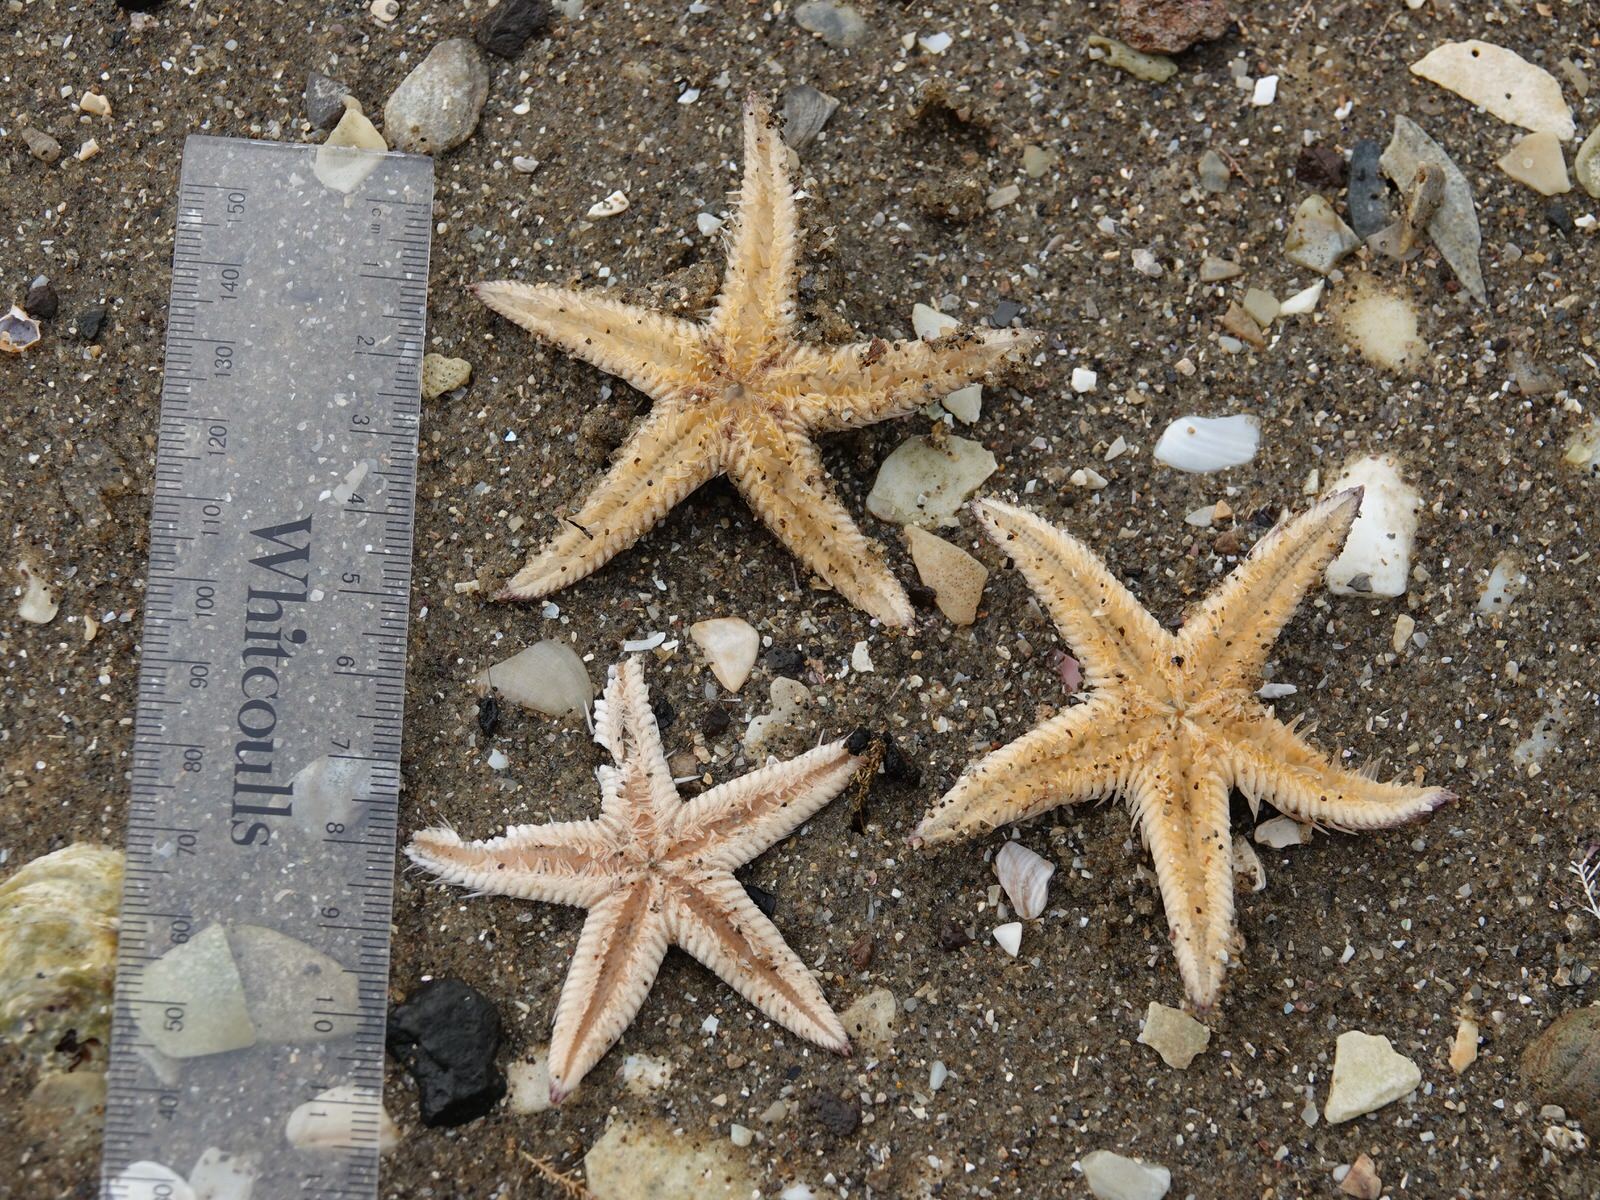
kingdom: Animalia
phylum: Echinodermata
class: Asteroidea
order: Paxillosida
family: Astropectinidae
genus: Astropecten
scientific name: Astropecten polyacanthus
